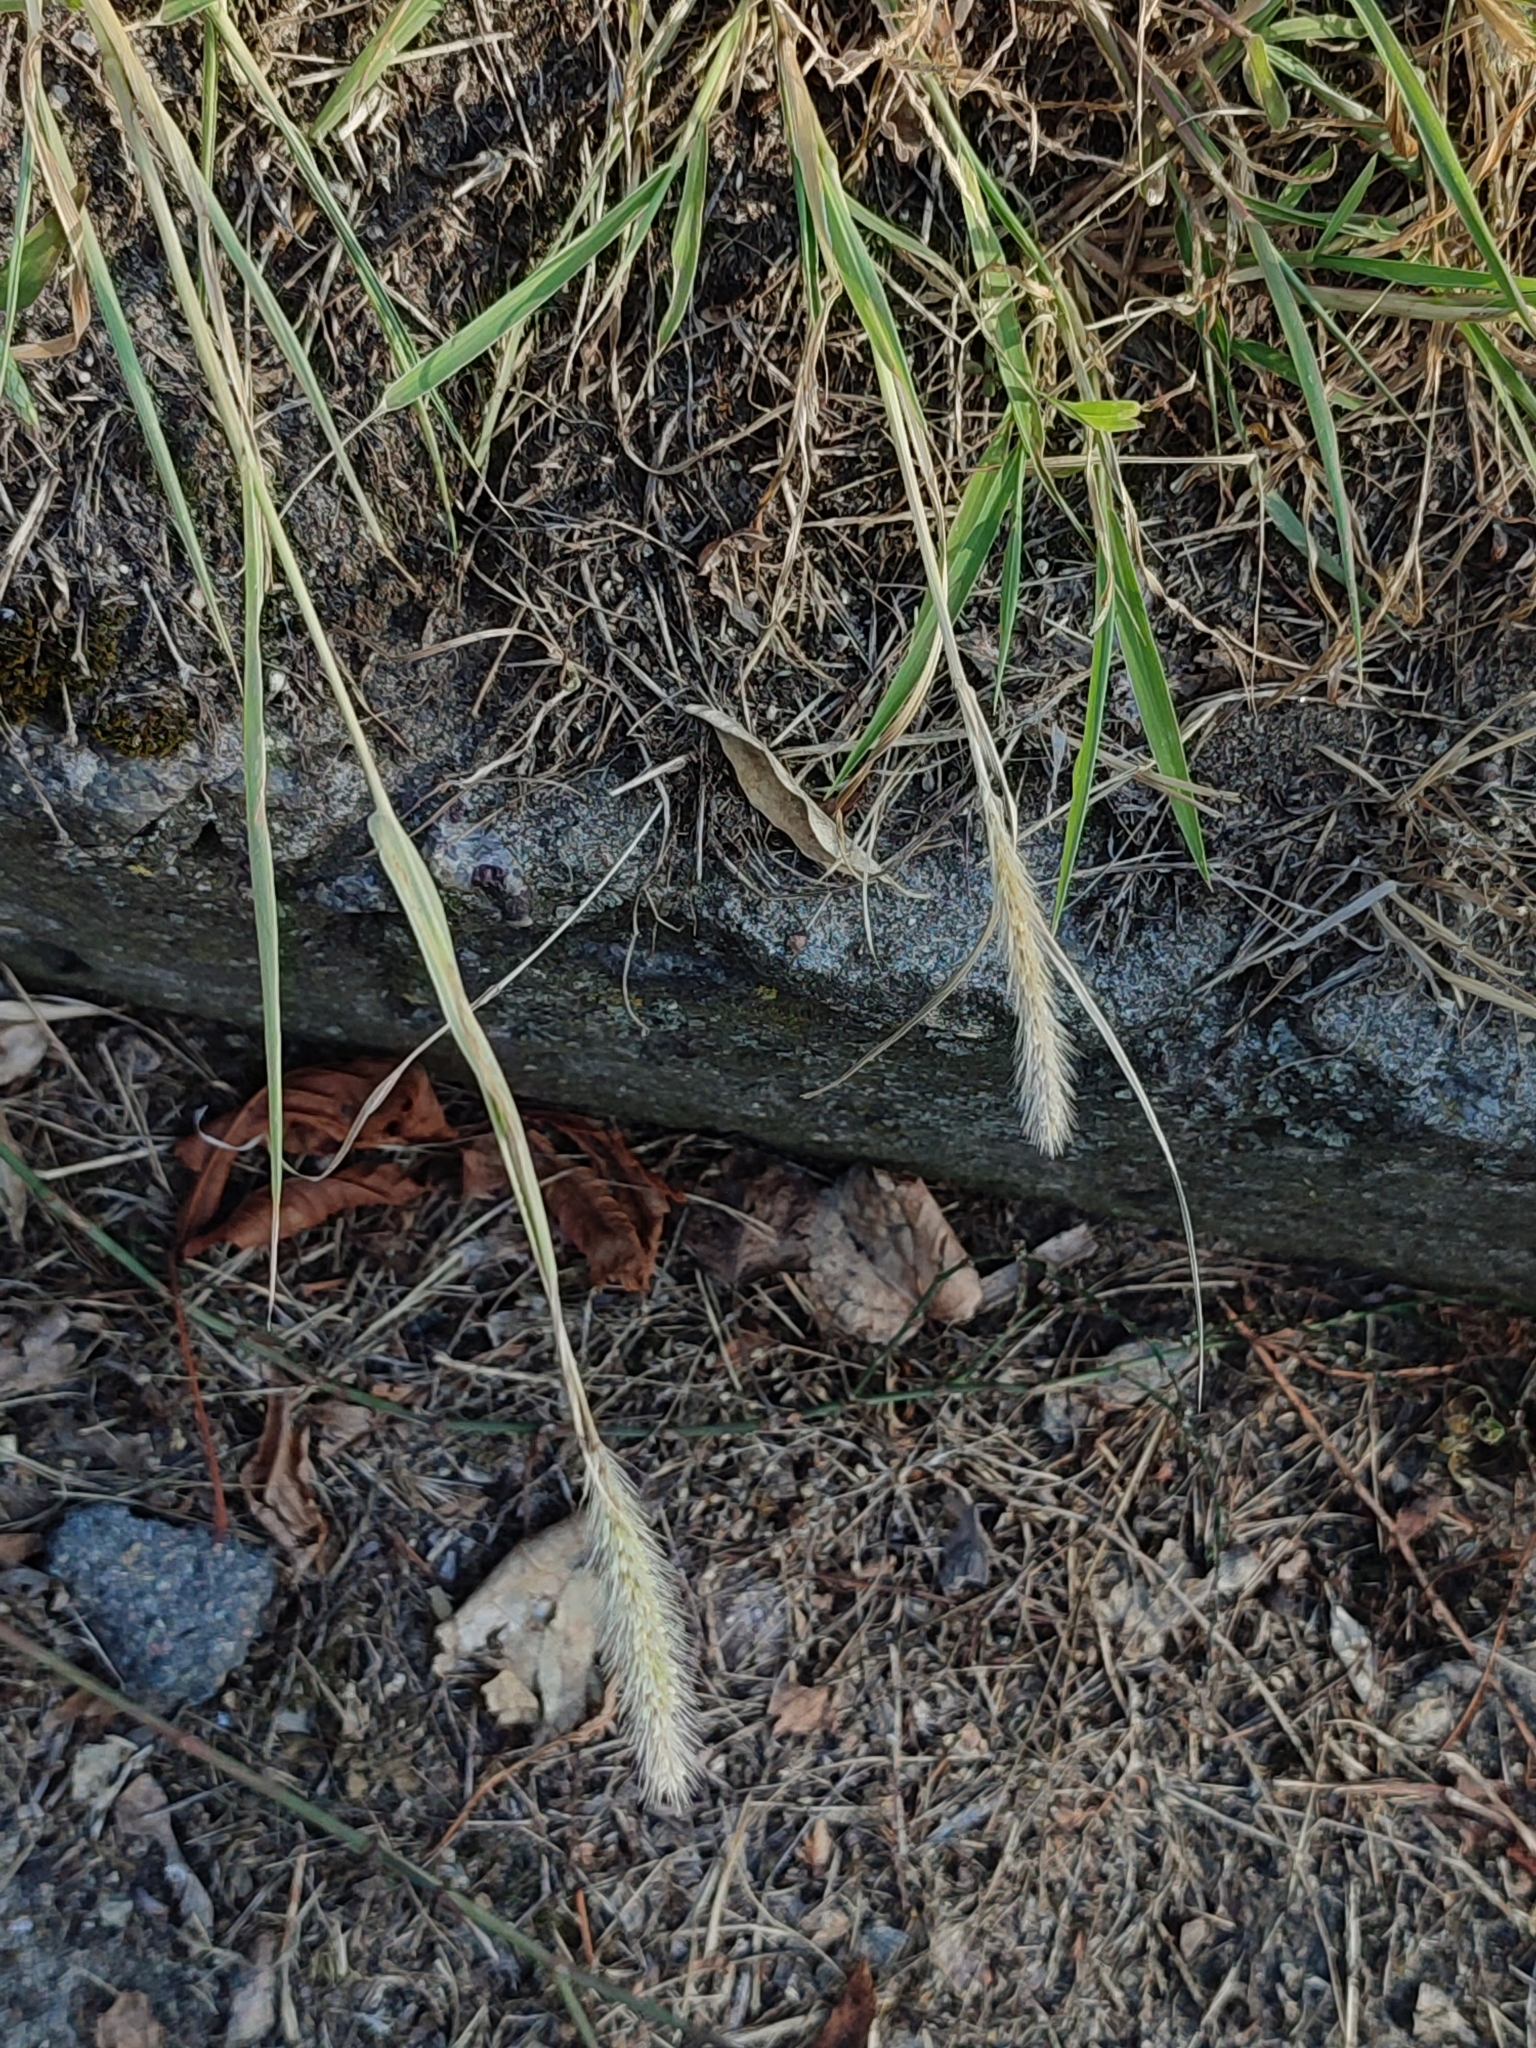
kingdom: Plantae
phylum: Tracheophyta
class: Liliopsida
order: Poales
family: Poaceae
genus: Setaria
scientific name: Setaria viridis
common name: Green bristlegrass
